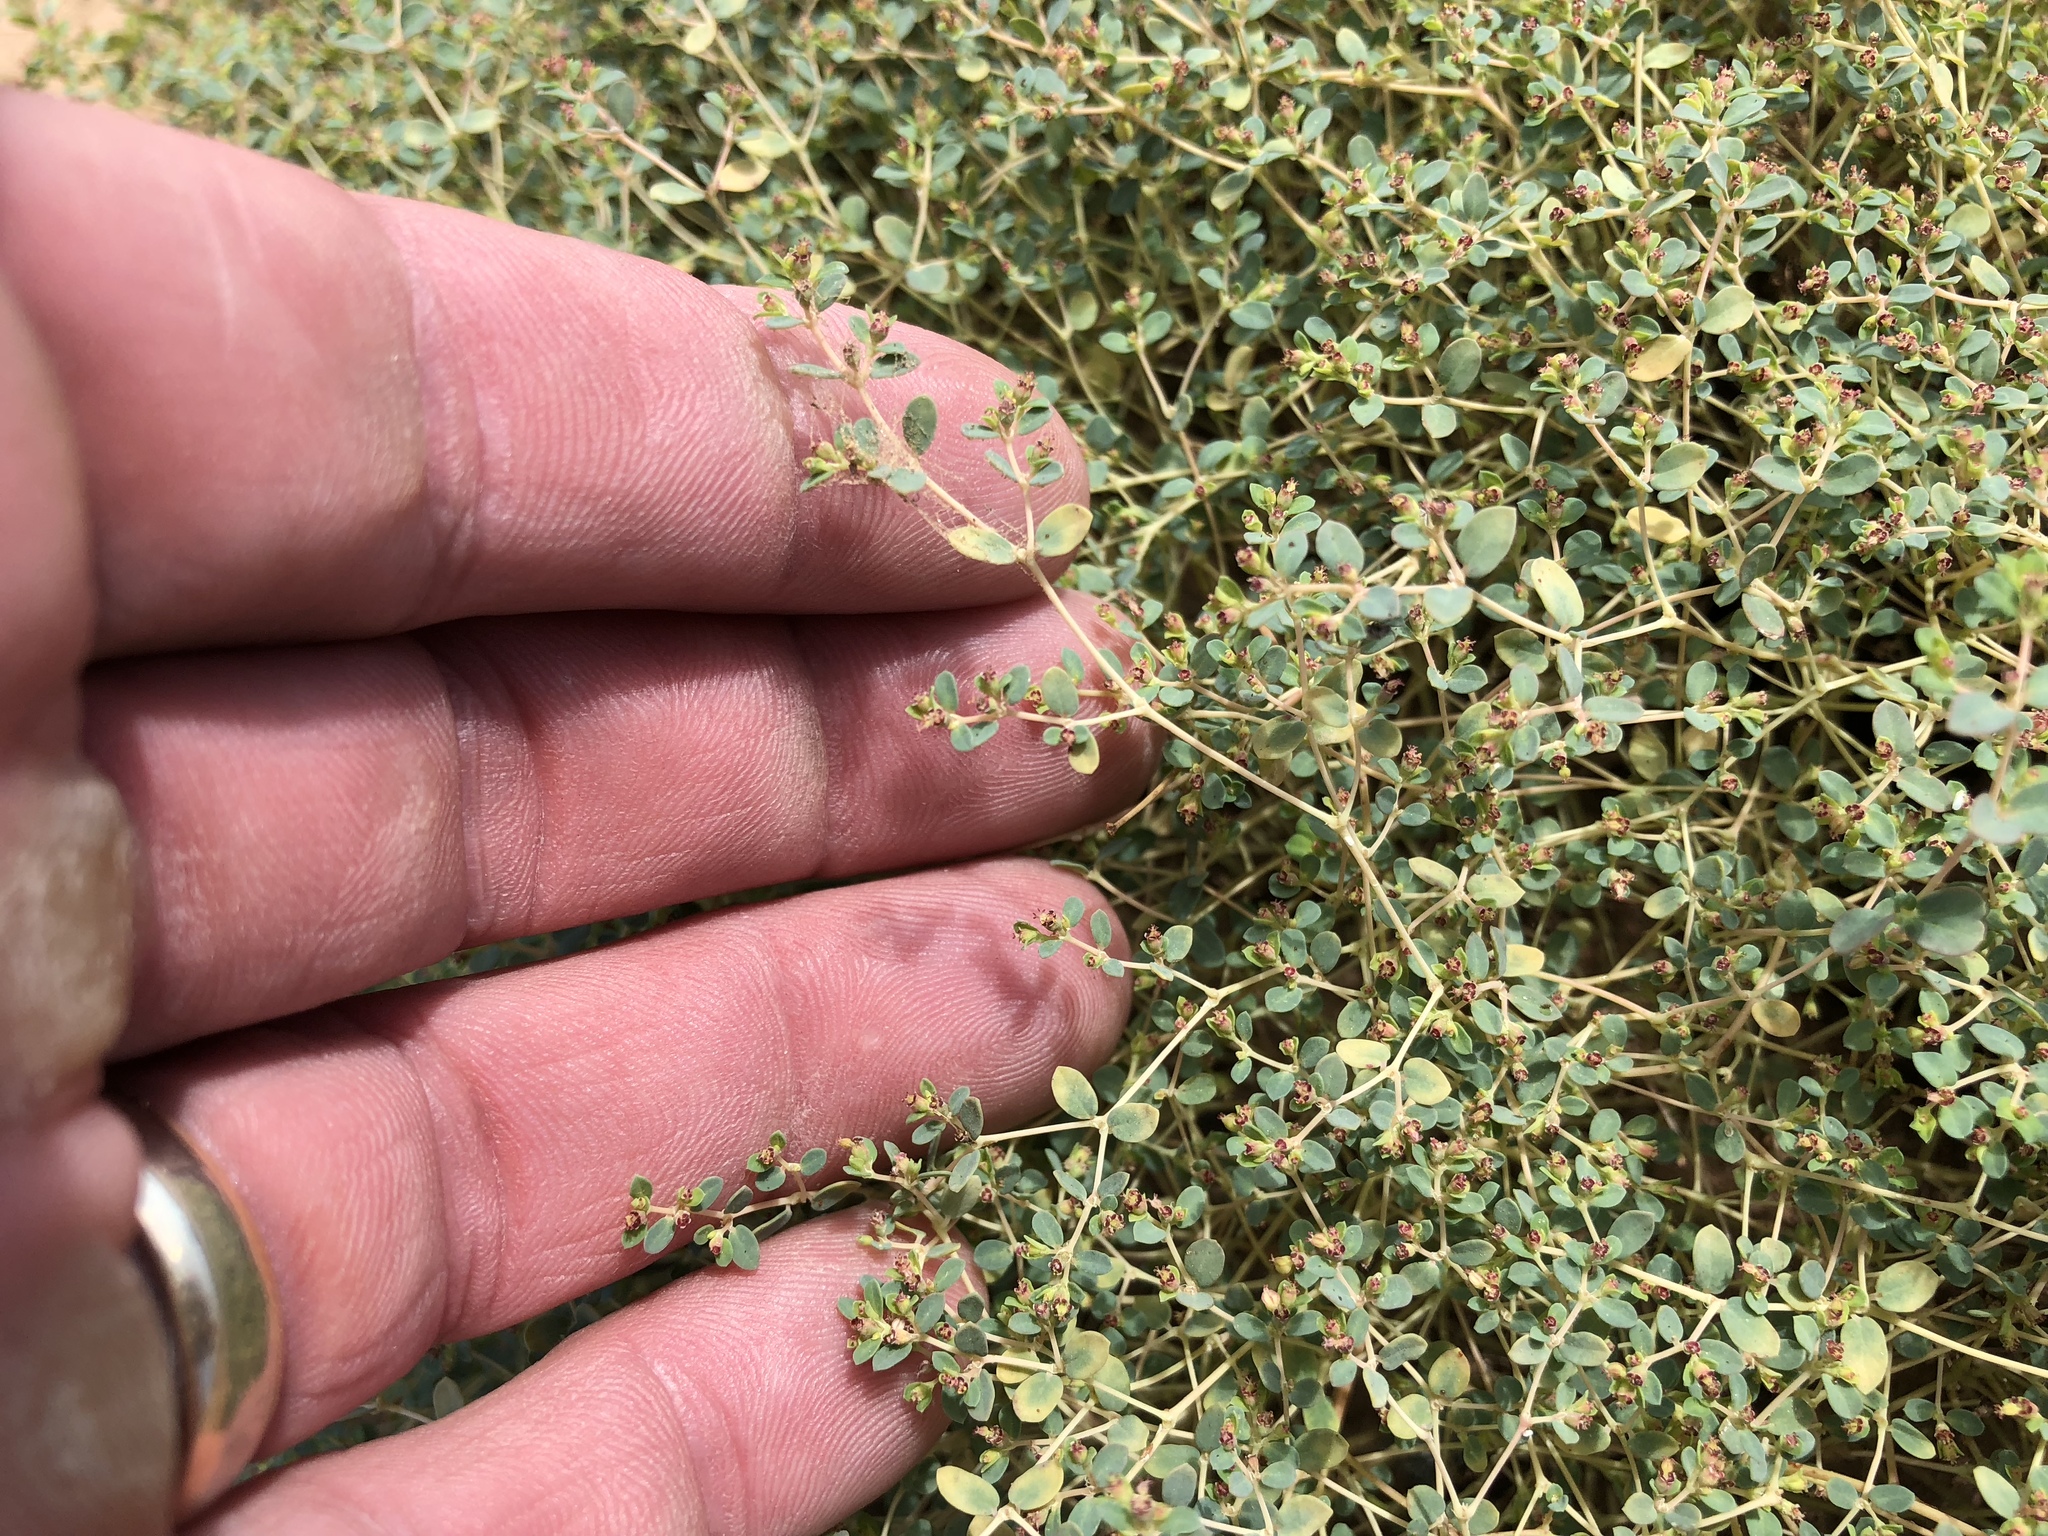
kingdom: Plantae
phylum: Tracheophyta
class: Magnoliopsida
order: Malpighiales
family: Euphorbiaceae
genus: Euphorbia
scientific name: Euphorbia polycarpa
